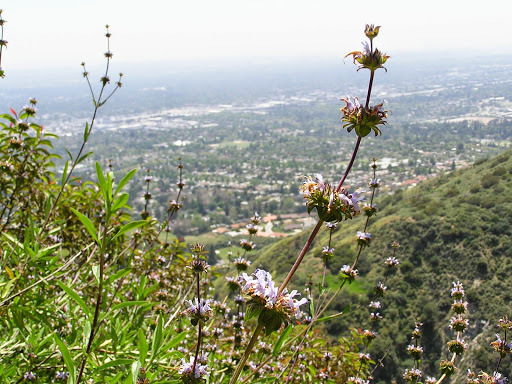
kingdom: Plantae
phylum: Tracheophyta
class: Magnoliopsida
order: Lamiales
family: Lamiaceae
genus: Salvia
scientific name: Salvia mellifera
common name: Black sage
